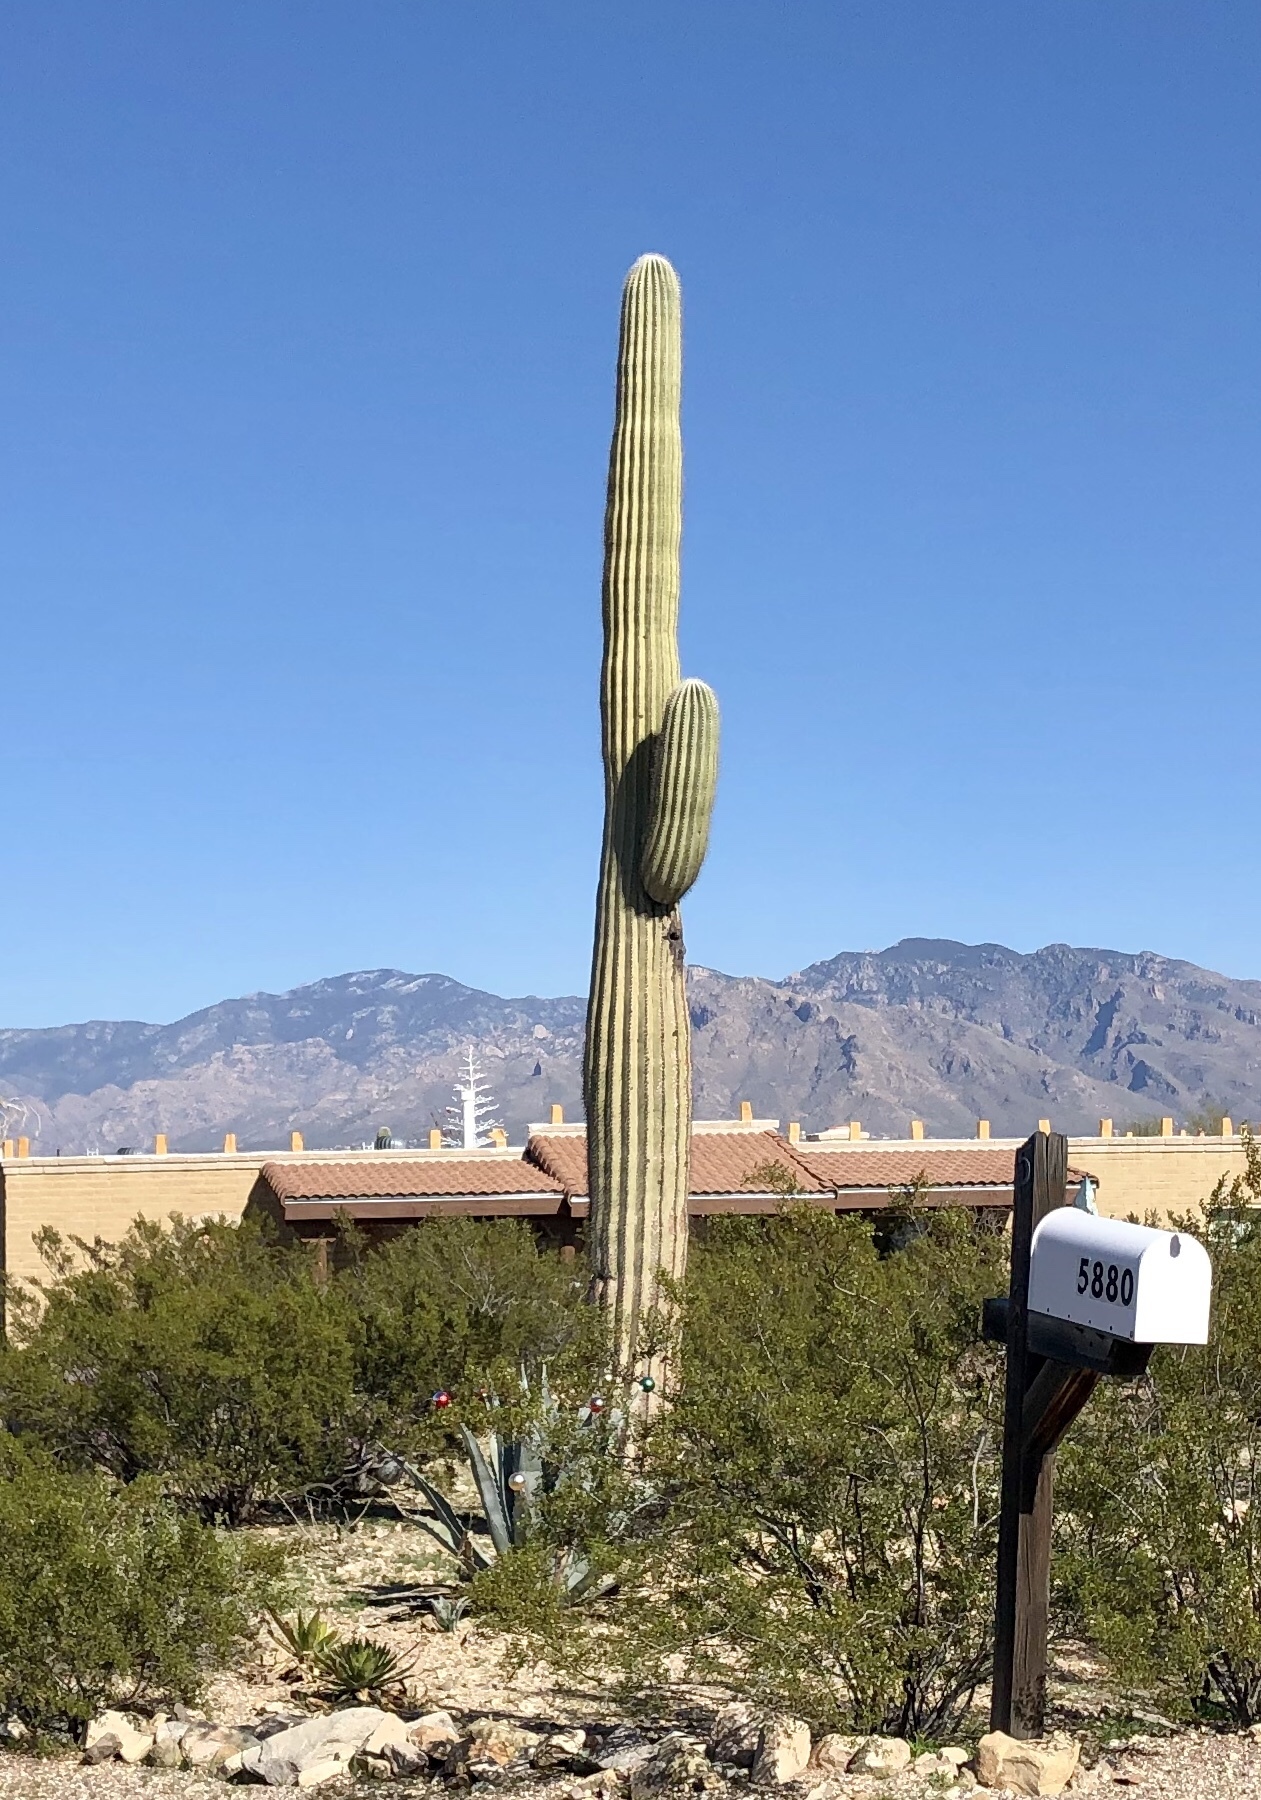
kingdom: Plantae
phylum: Tracheophyta
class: Magnoliopsida
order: Caryophyllales
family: Cactaceae
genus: Carnegiea
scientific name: Carnegiea gigantea
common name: Saguaro
